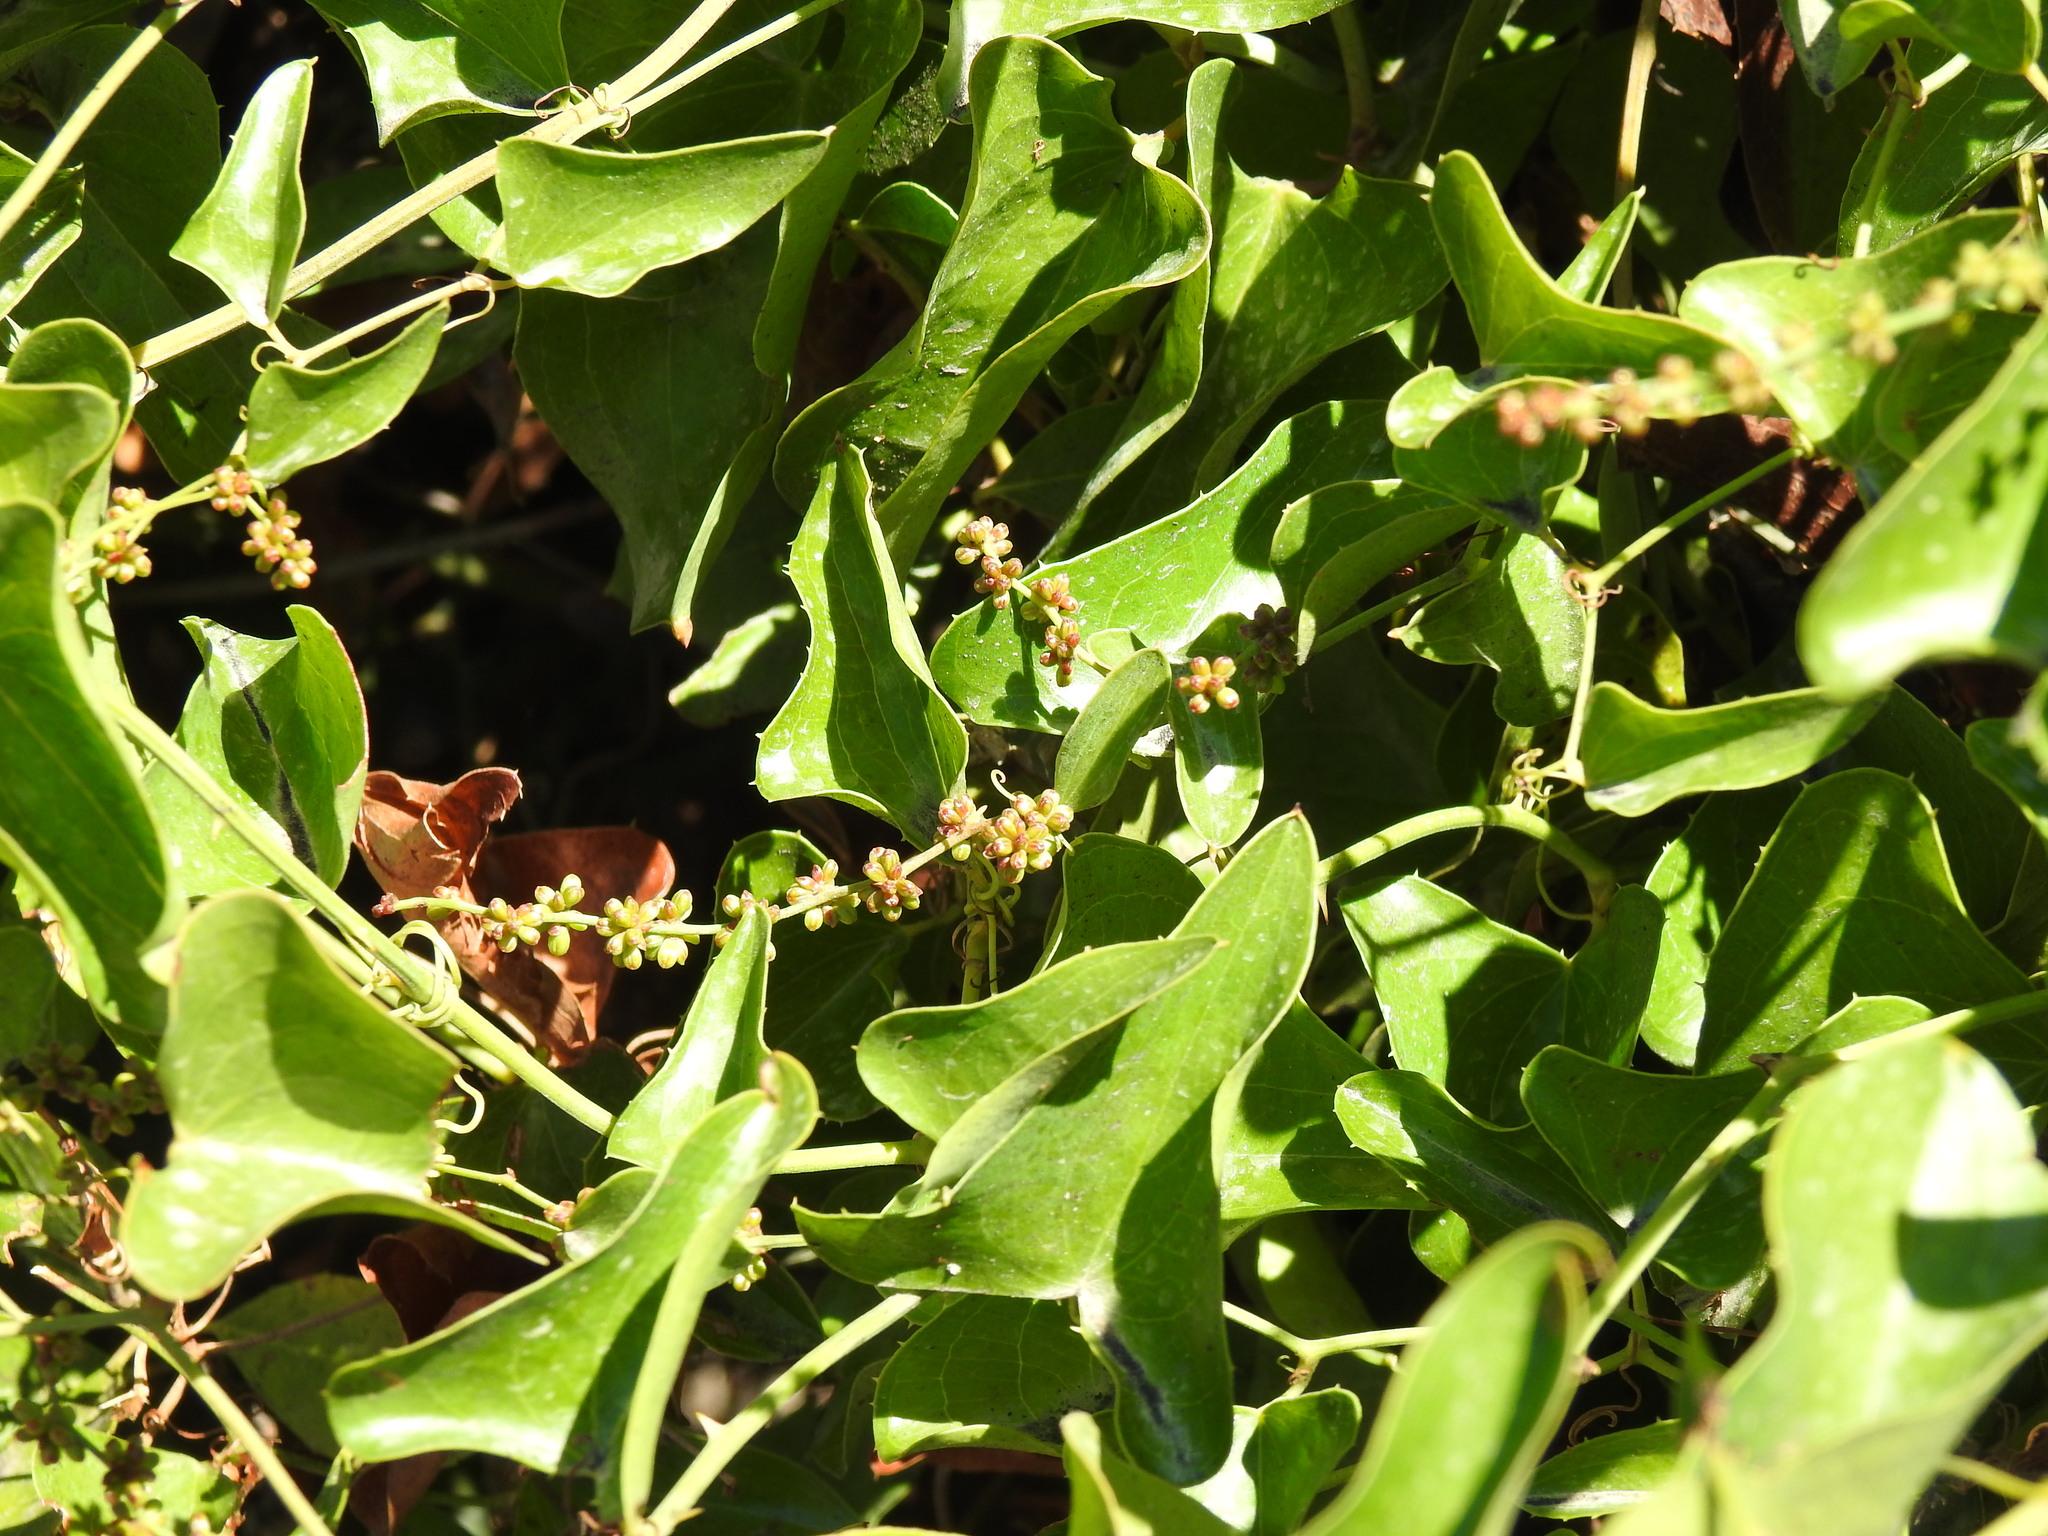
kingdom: Plantae
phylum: Tracheophyta
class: Liliopsida
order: Liliales
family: Smilacaceae
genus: Smilax
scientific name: Smilax aspera
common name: Common smilax
